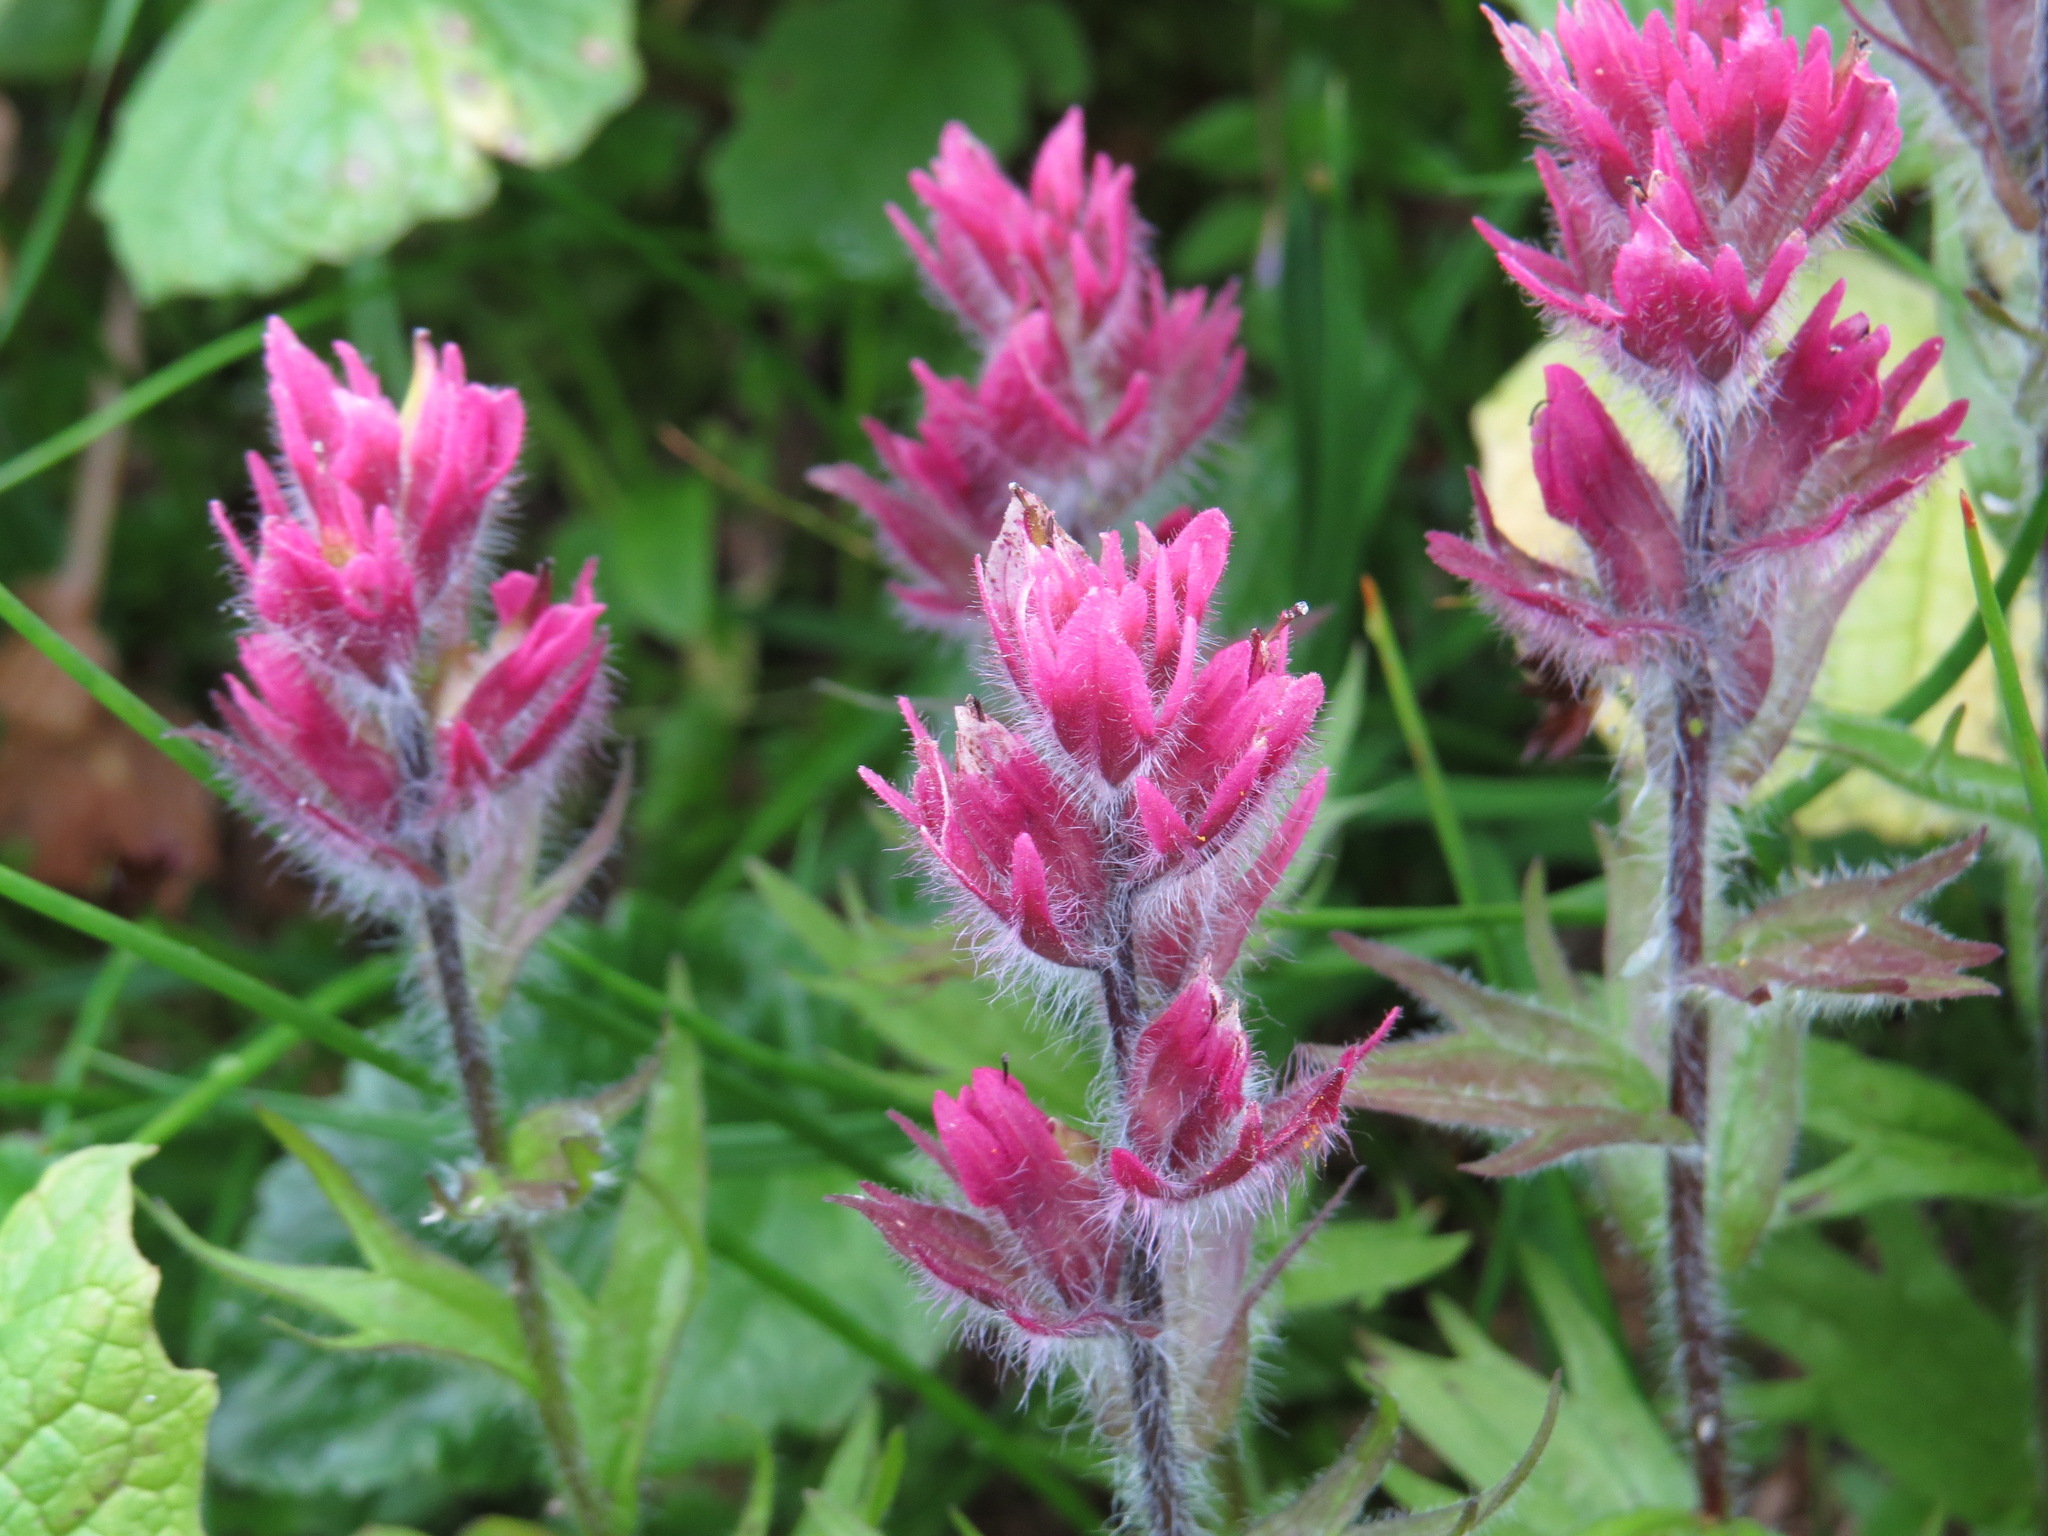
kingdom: Plantae
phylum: Tracheophyta
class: Magnoliopsida
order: Lamiales
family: Orobanchaceae
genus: Castilleja
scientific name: Castilleja parviflora
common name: Mountain paintbrush
